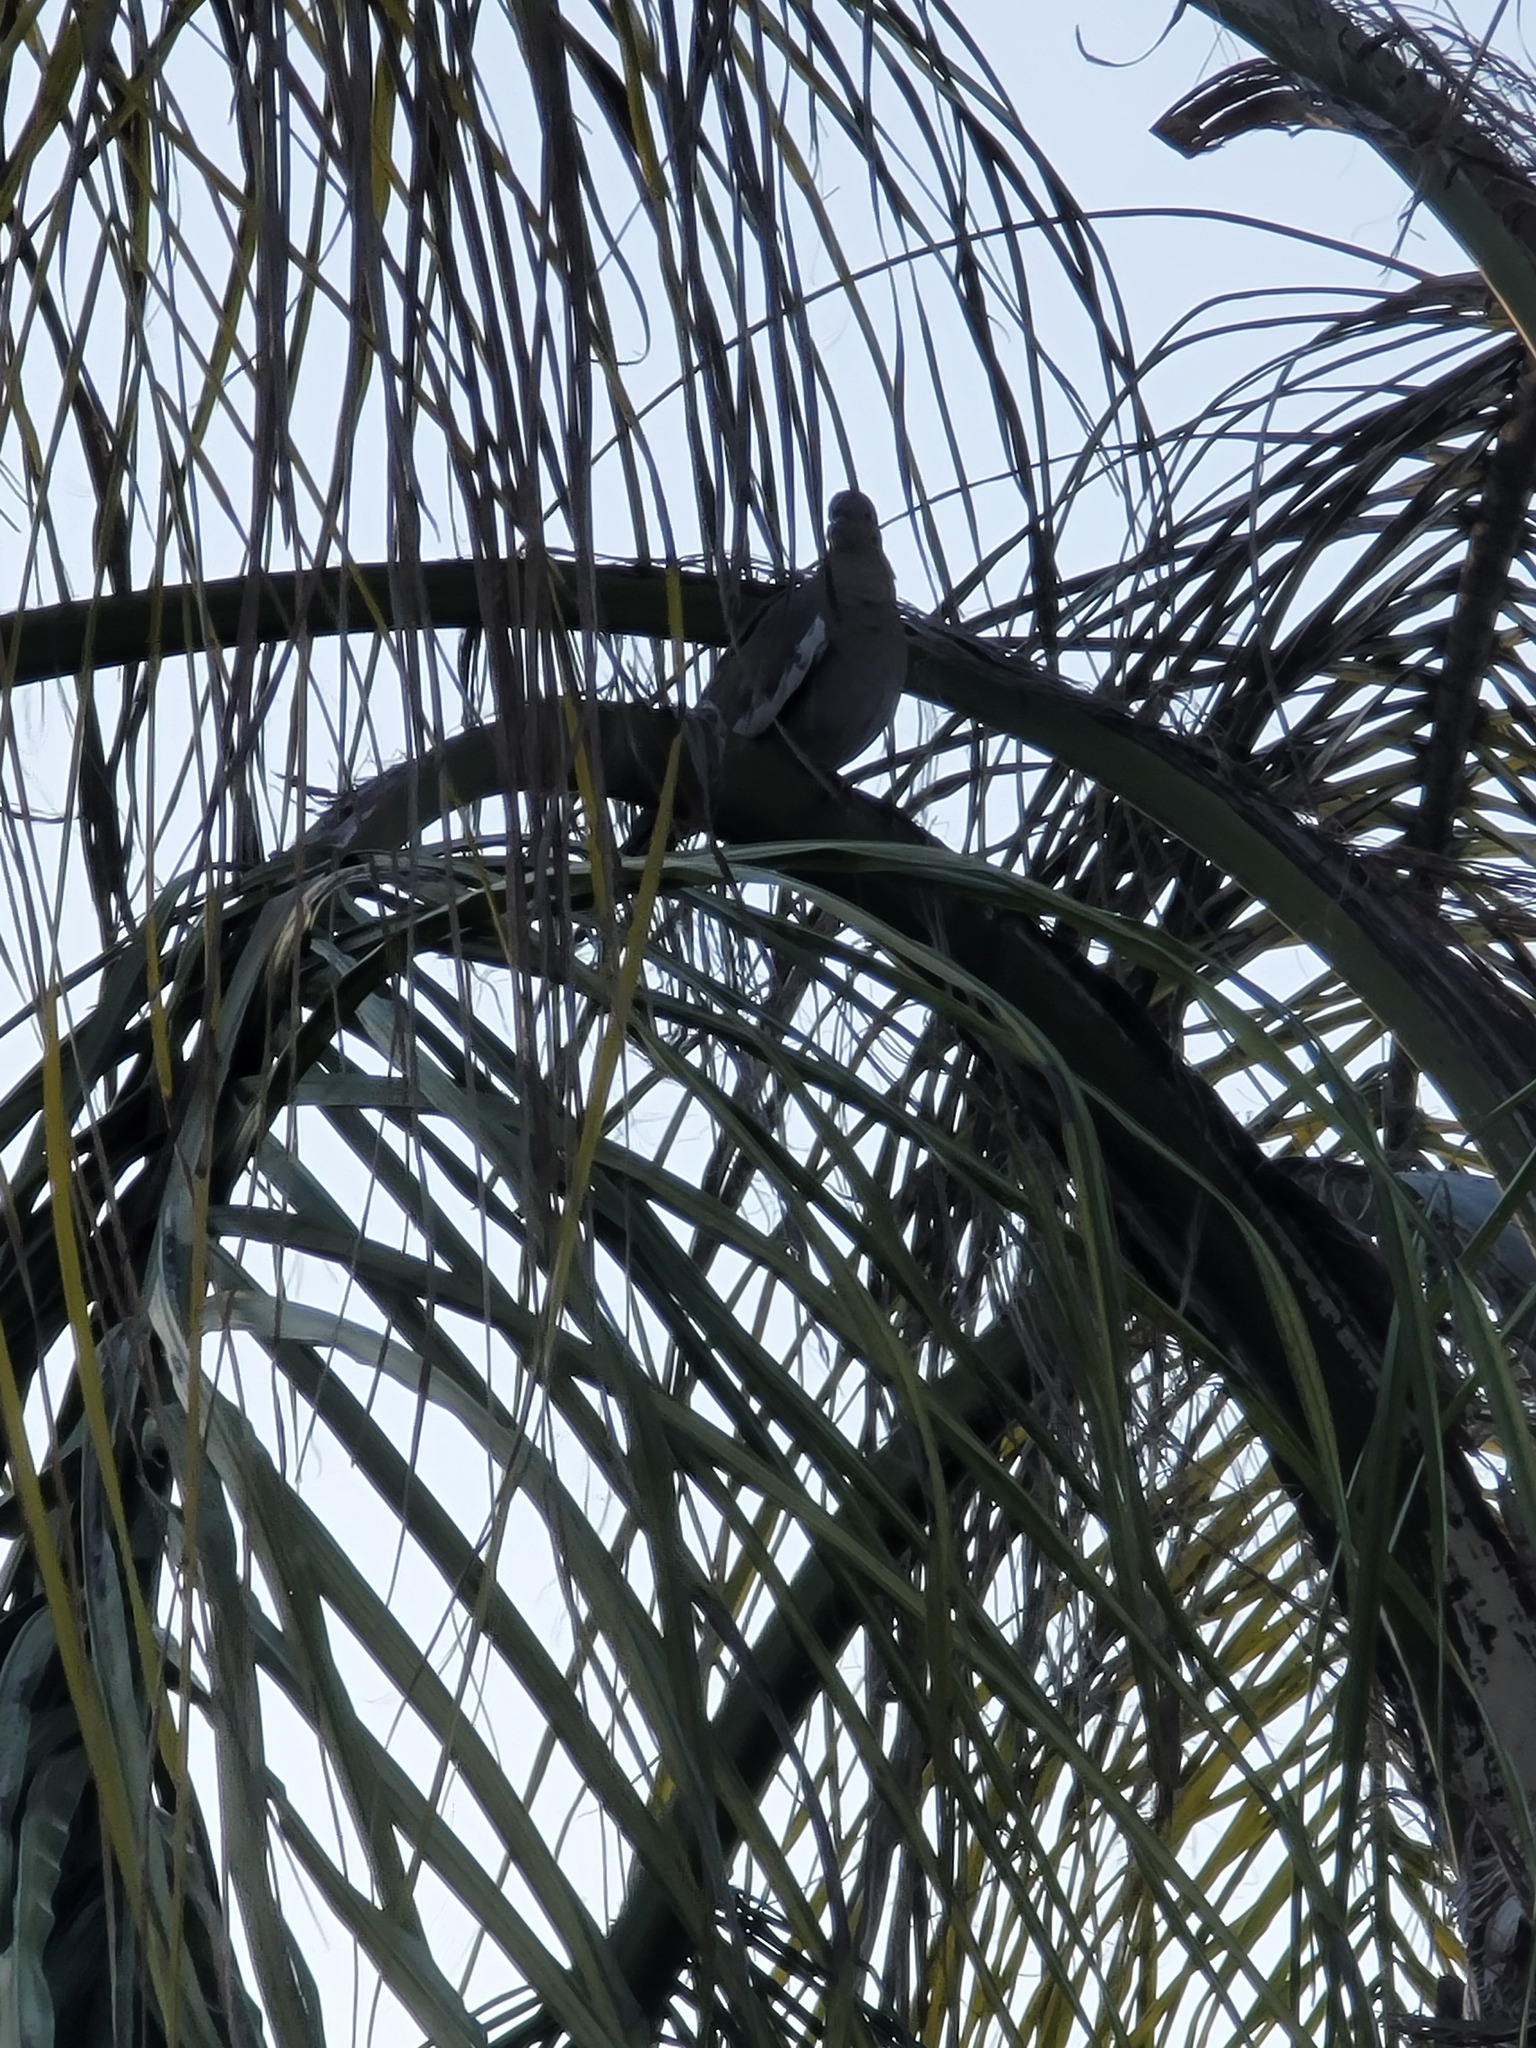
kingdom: Animalia
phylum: Chordata
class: Aves
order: Columbiformes
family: Columbidae
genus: Zenaida
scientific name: Zenaida asiatica
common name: White-winged dove
